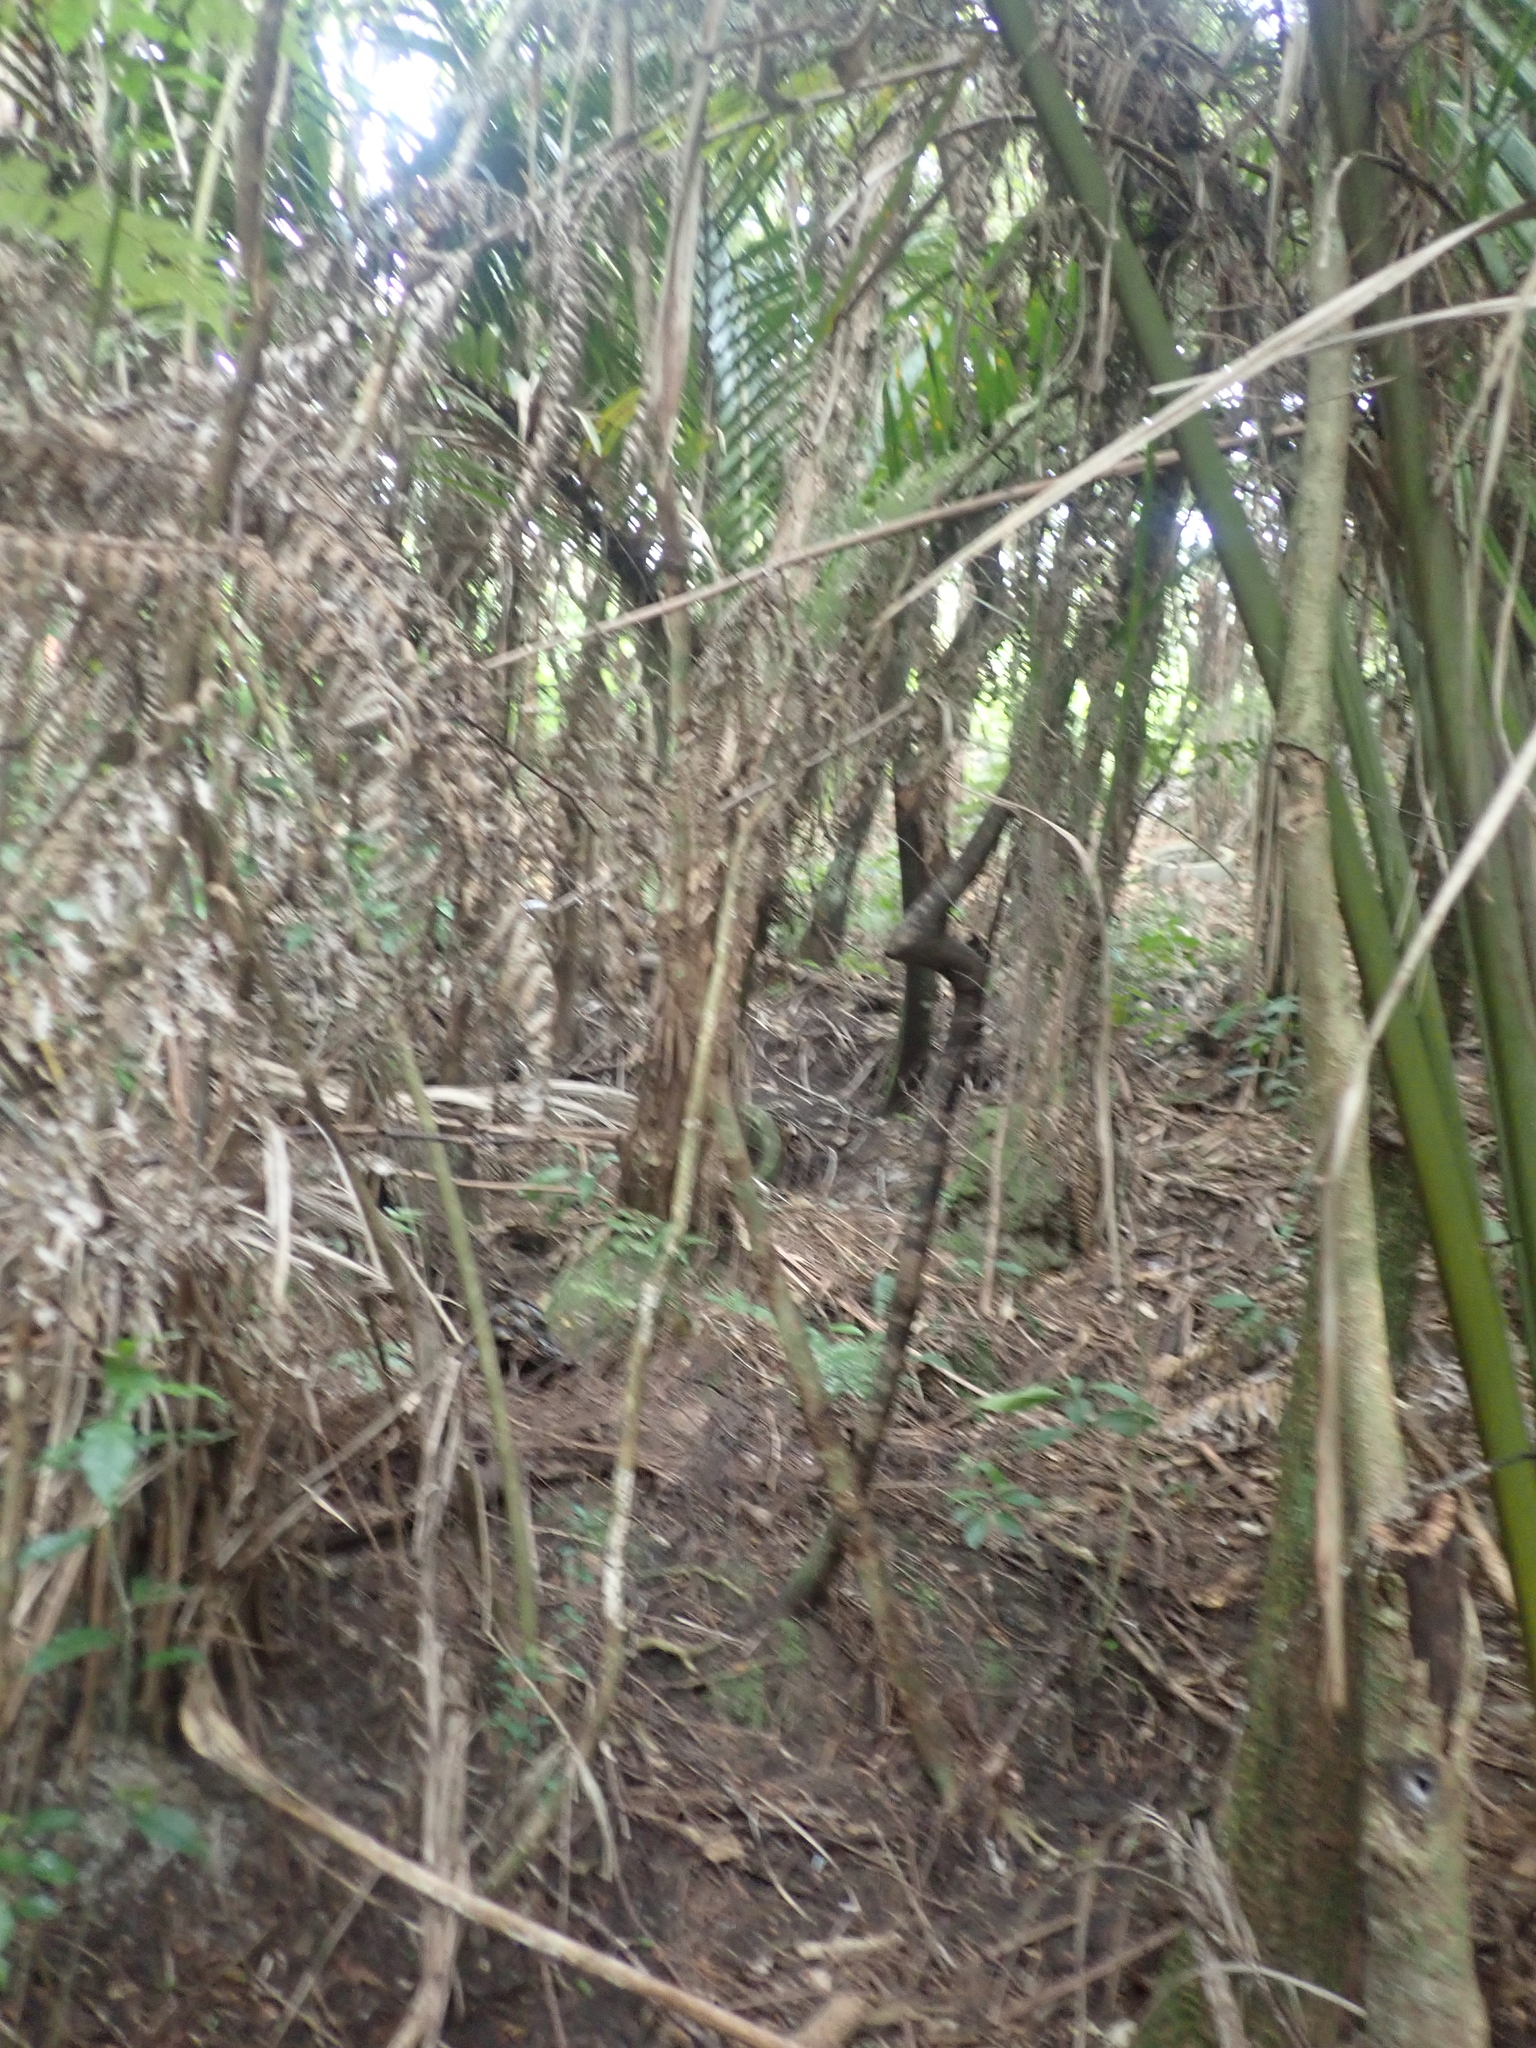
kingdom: Plantae
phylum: Tracheophyta
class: Liliopsida
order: Arecales
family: Arecaceae
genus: Rhopalostylis
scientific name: Rhopalostylis sapida
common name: Feather-duster palm
